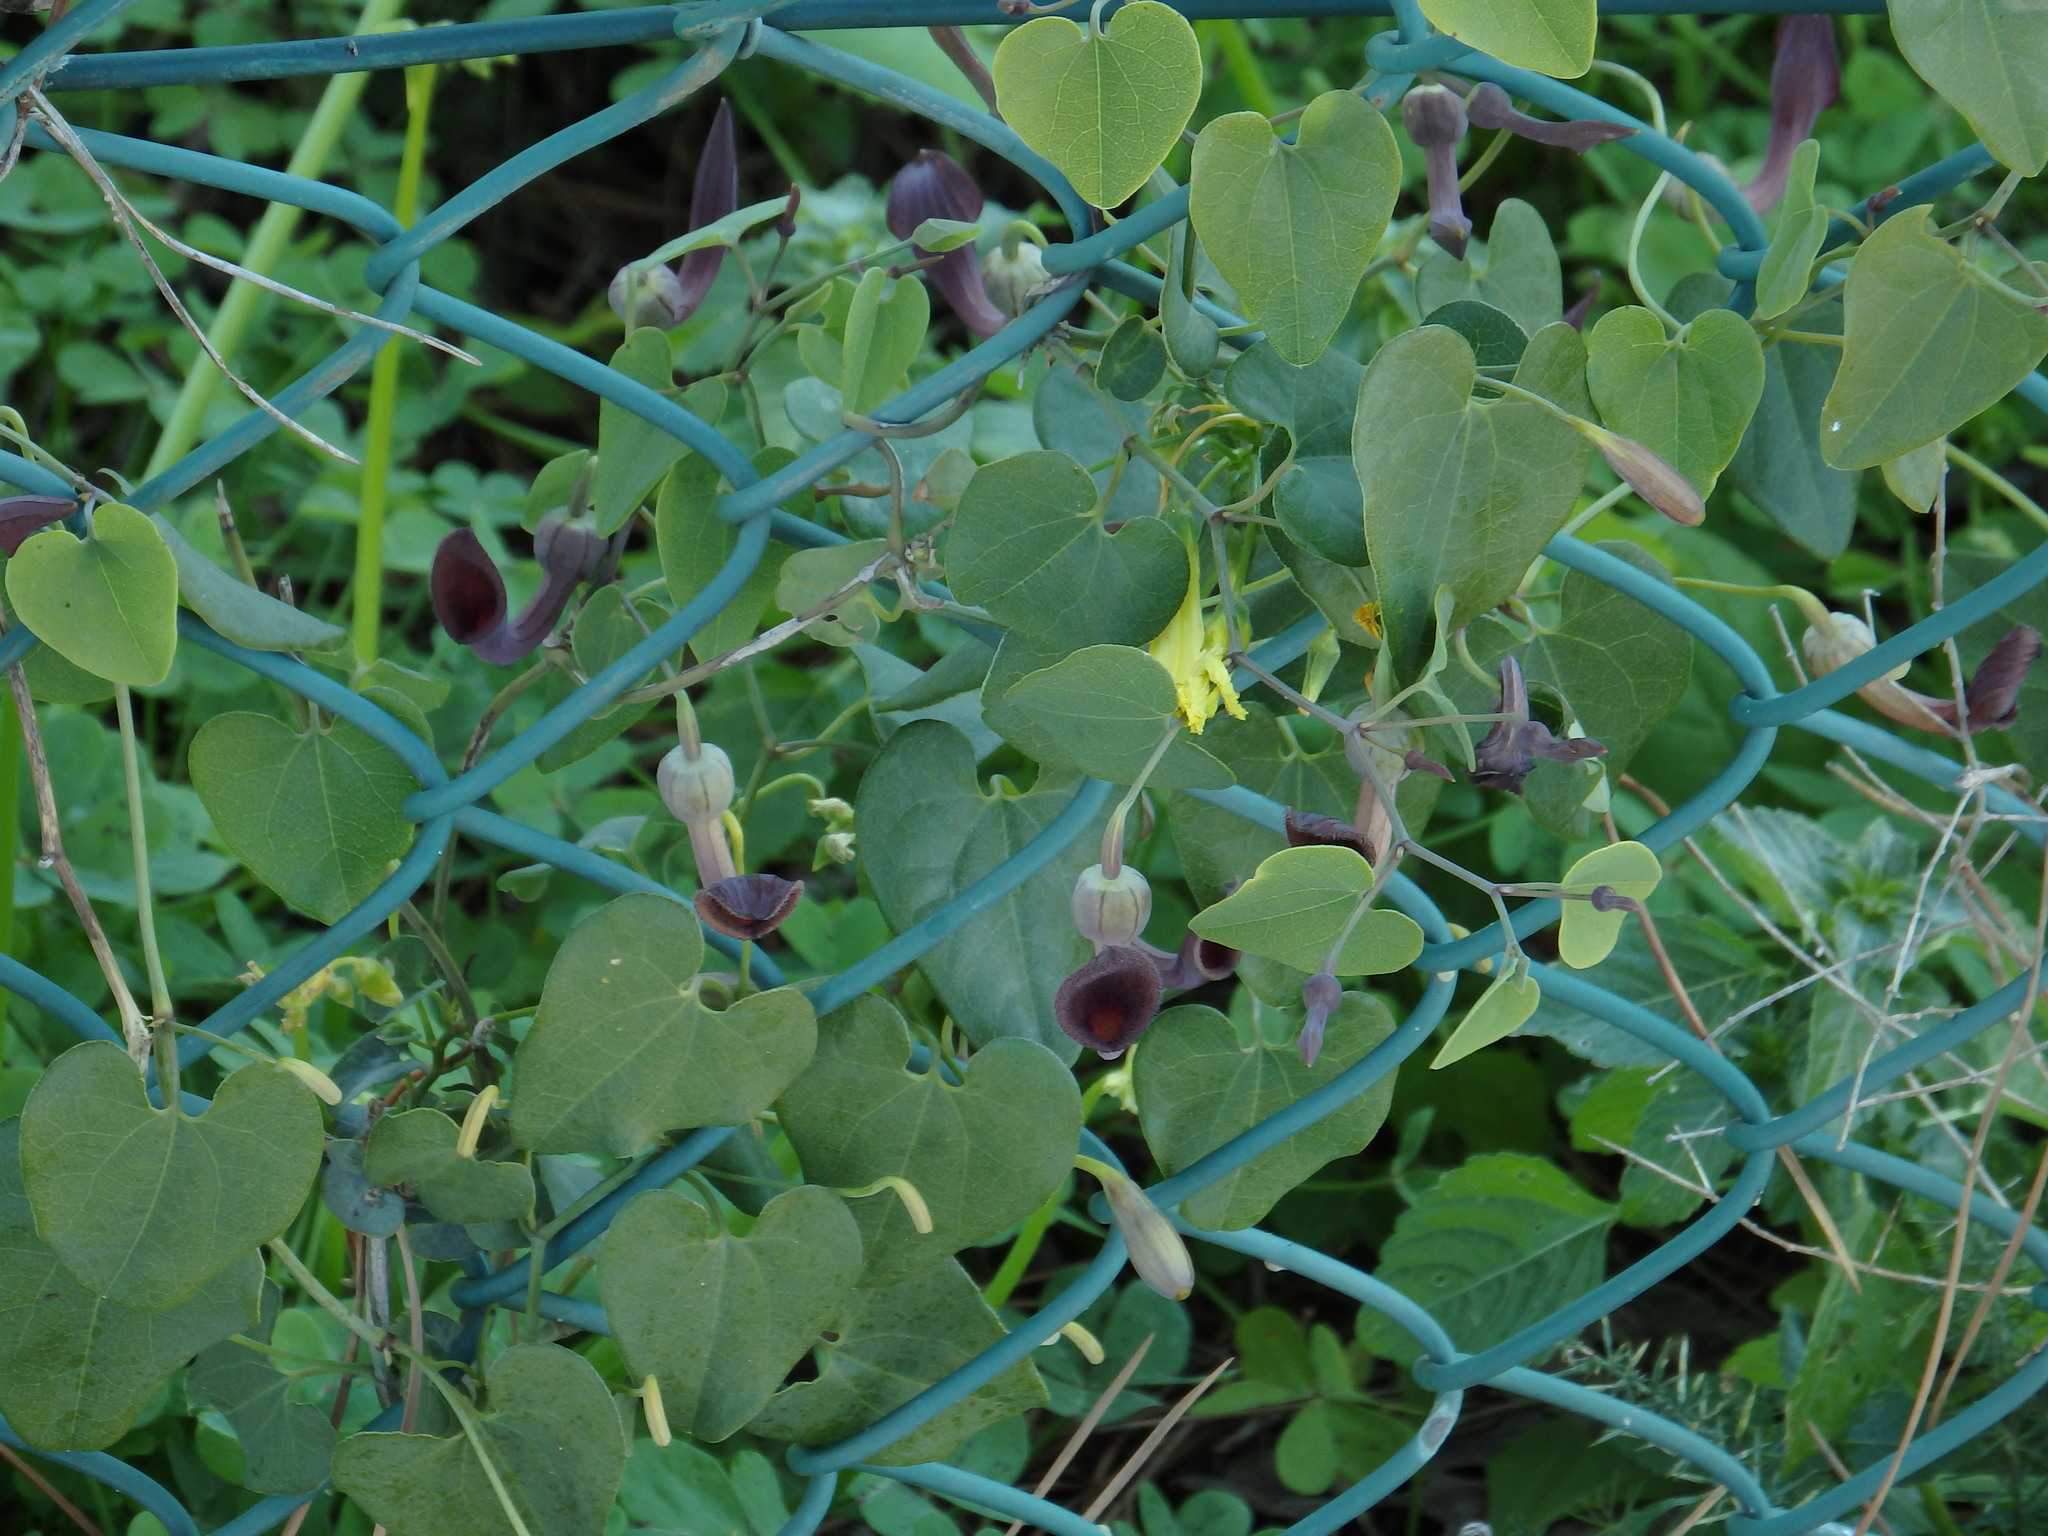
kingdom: Plantae
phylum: Tracheophyta
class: Magnoliopsida
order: Piperales
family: Aristolochiaceae
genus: Aristolochia
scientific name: Aristolochia baetica
